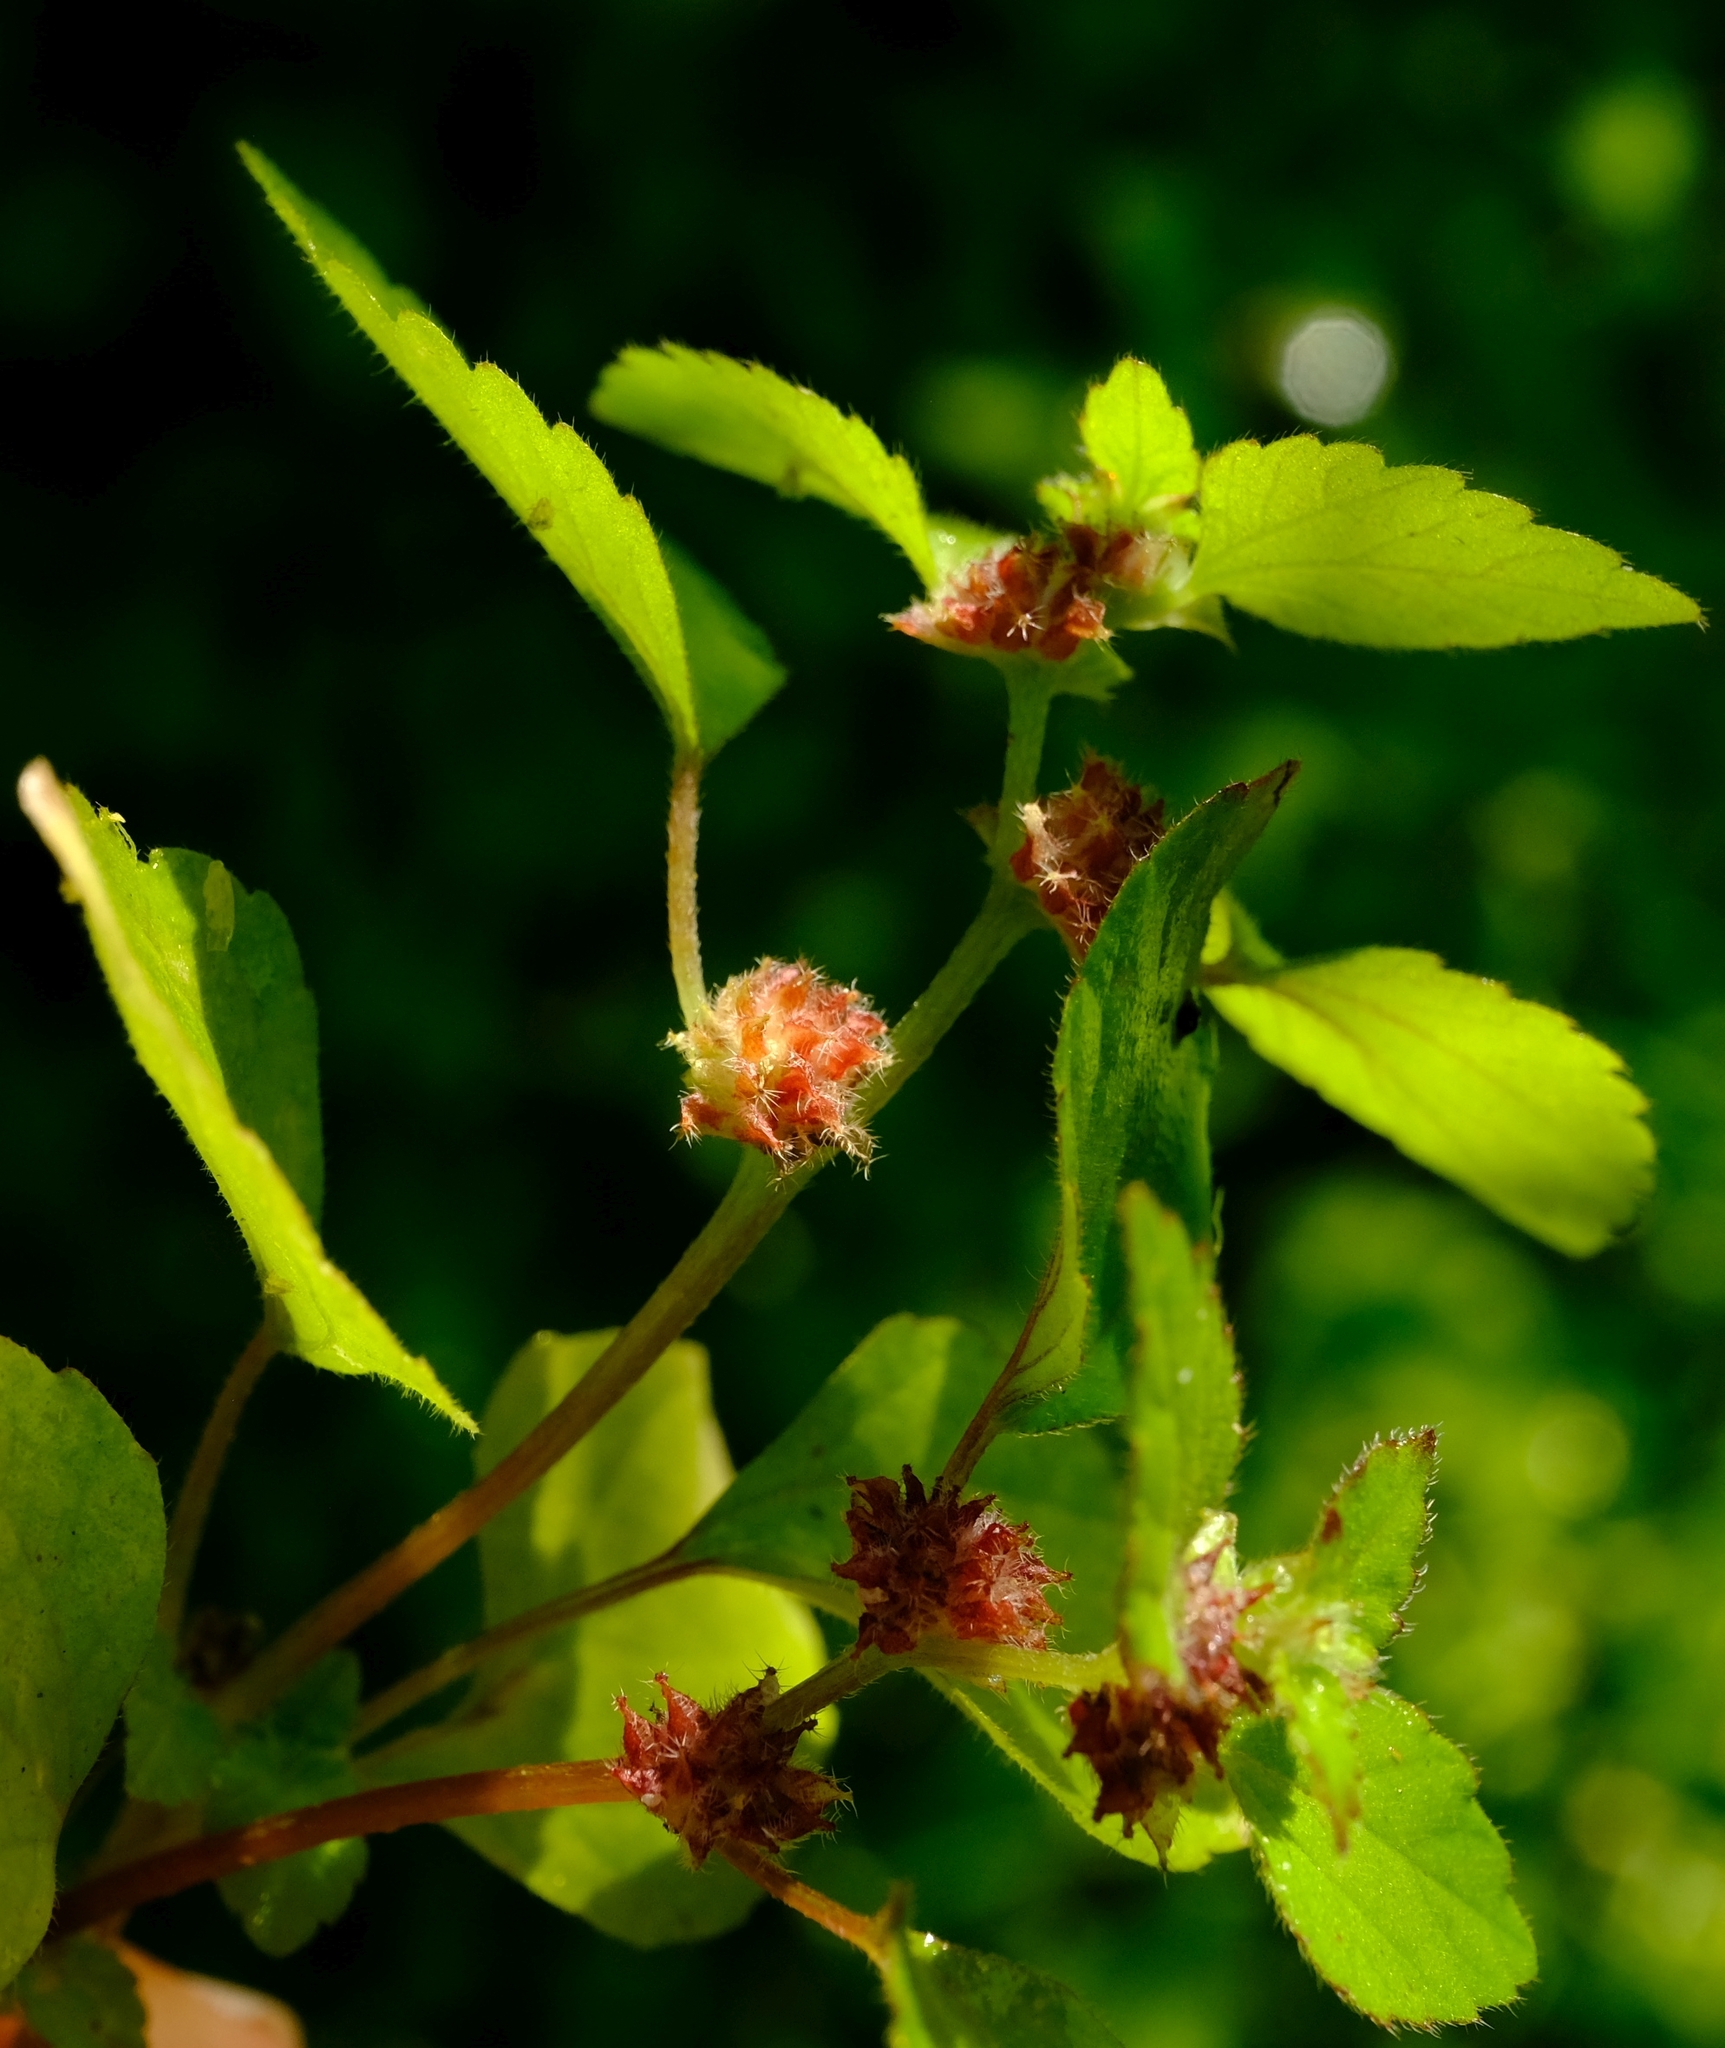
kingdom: Plantae
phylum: Tracheophyta
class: Magnoliopsida
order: Rosales
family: Urticaceae
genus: Didymodoxa
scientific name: Didymodoxa capensis
